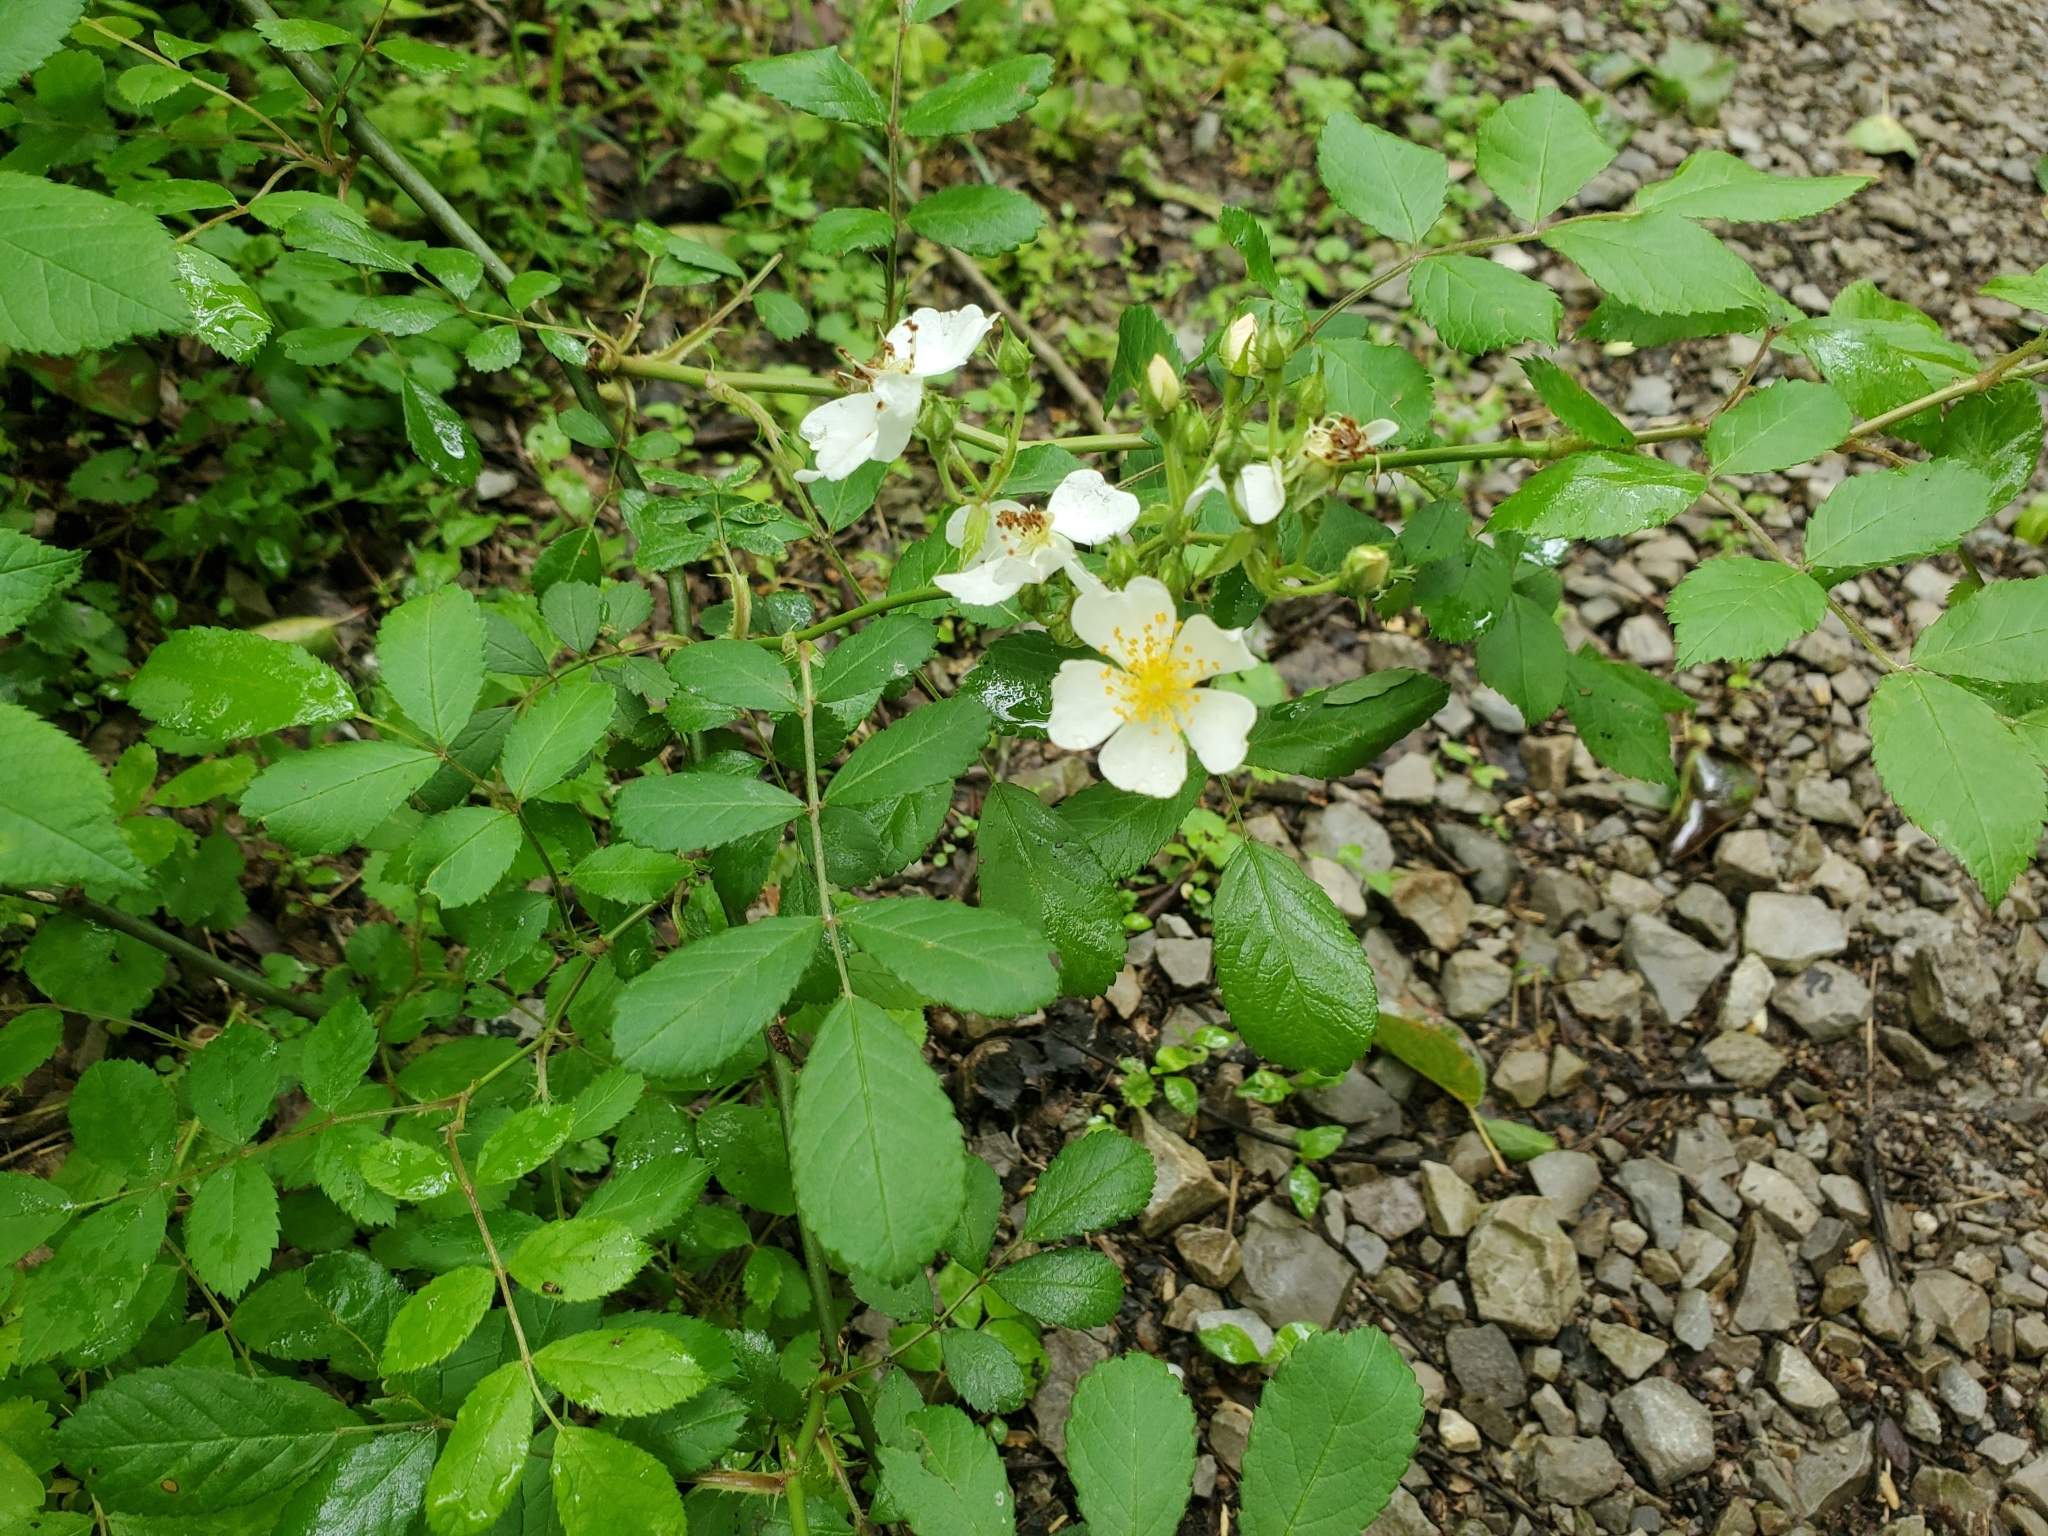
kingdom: Plantae
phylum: Tracheophyta
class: Magnoliopsida
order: Rosales
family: Rosaceae
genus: Rosa
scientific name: Rosa multiflora
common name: Multiflora rose
